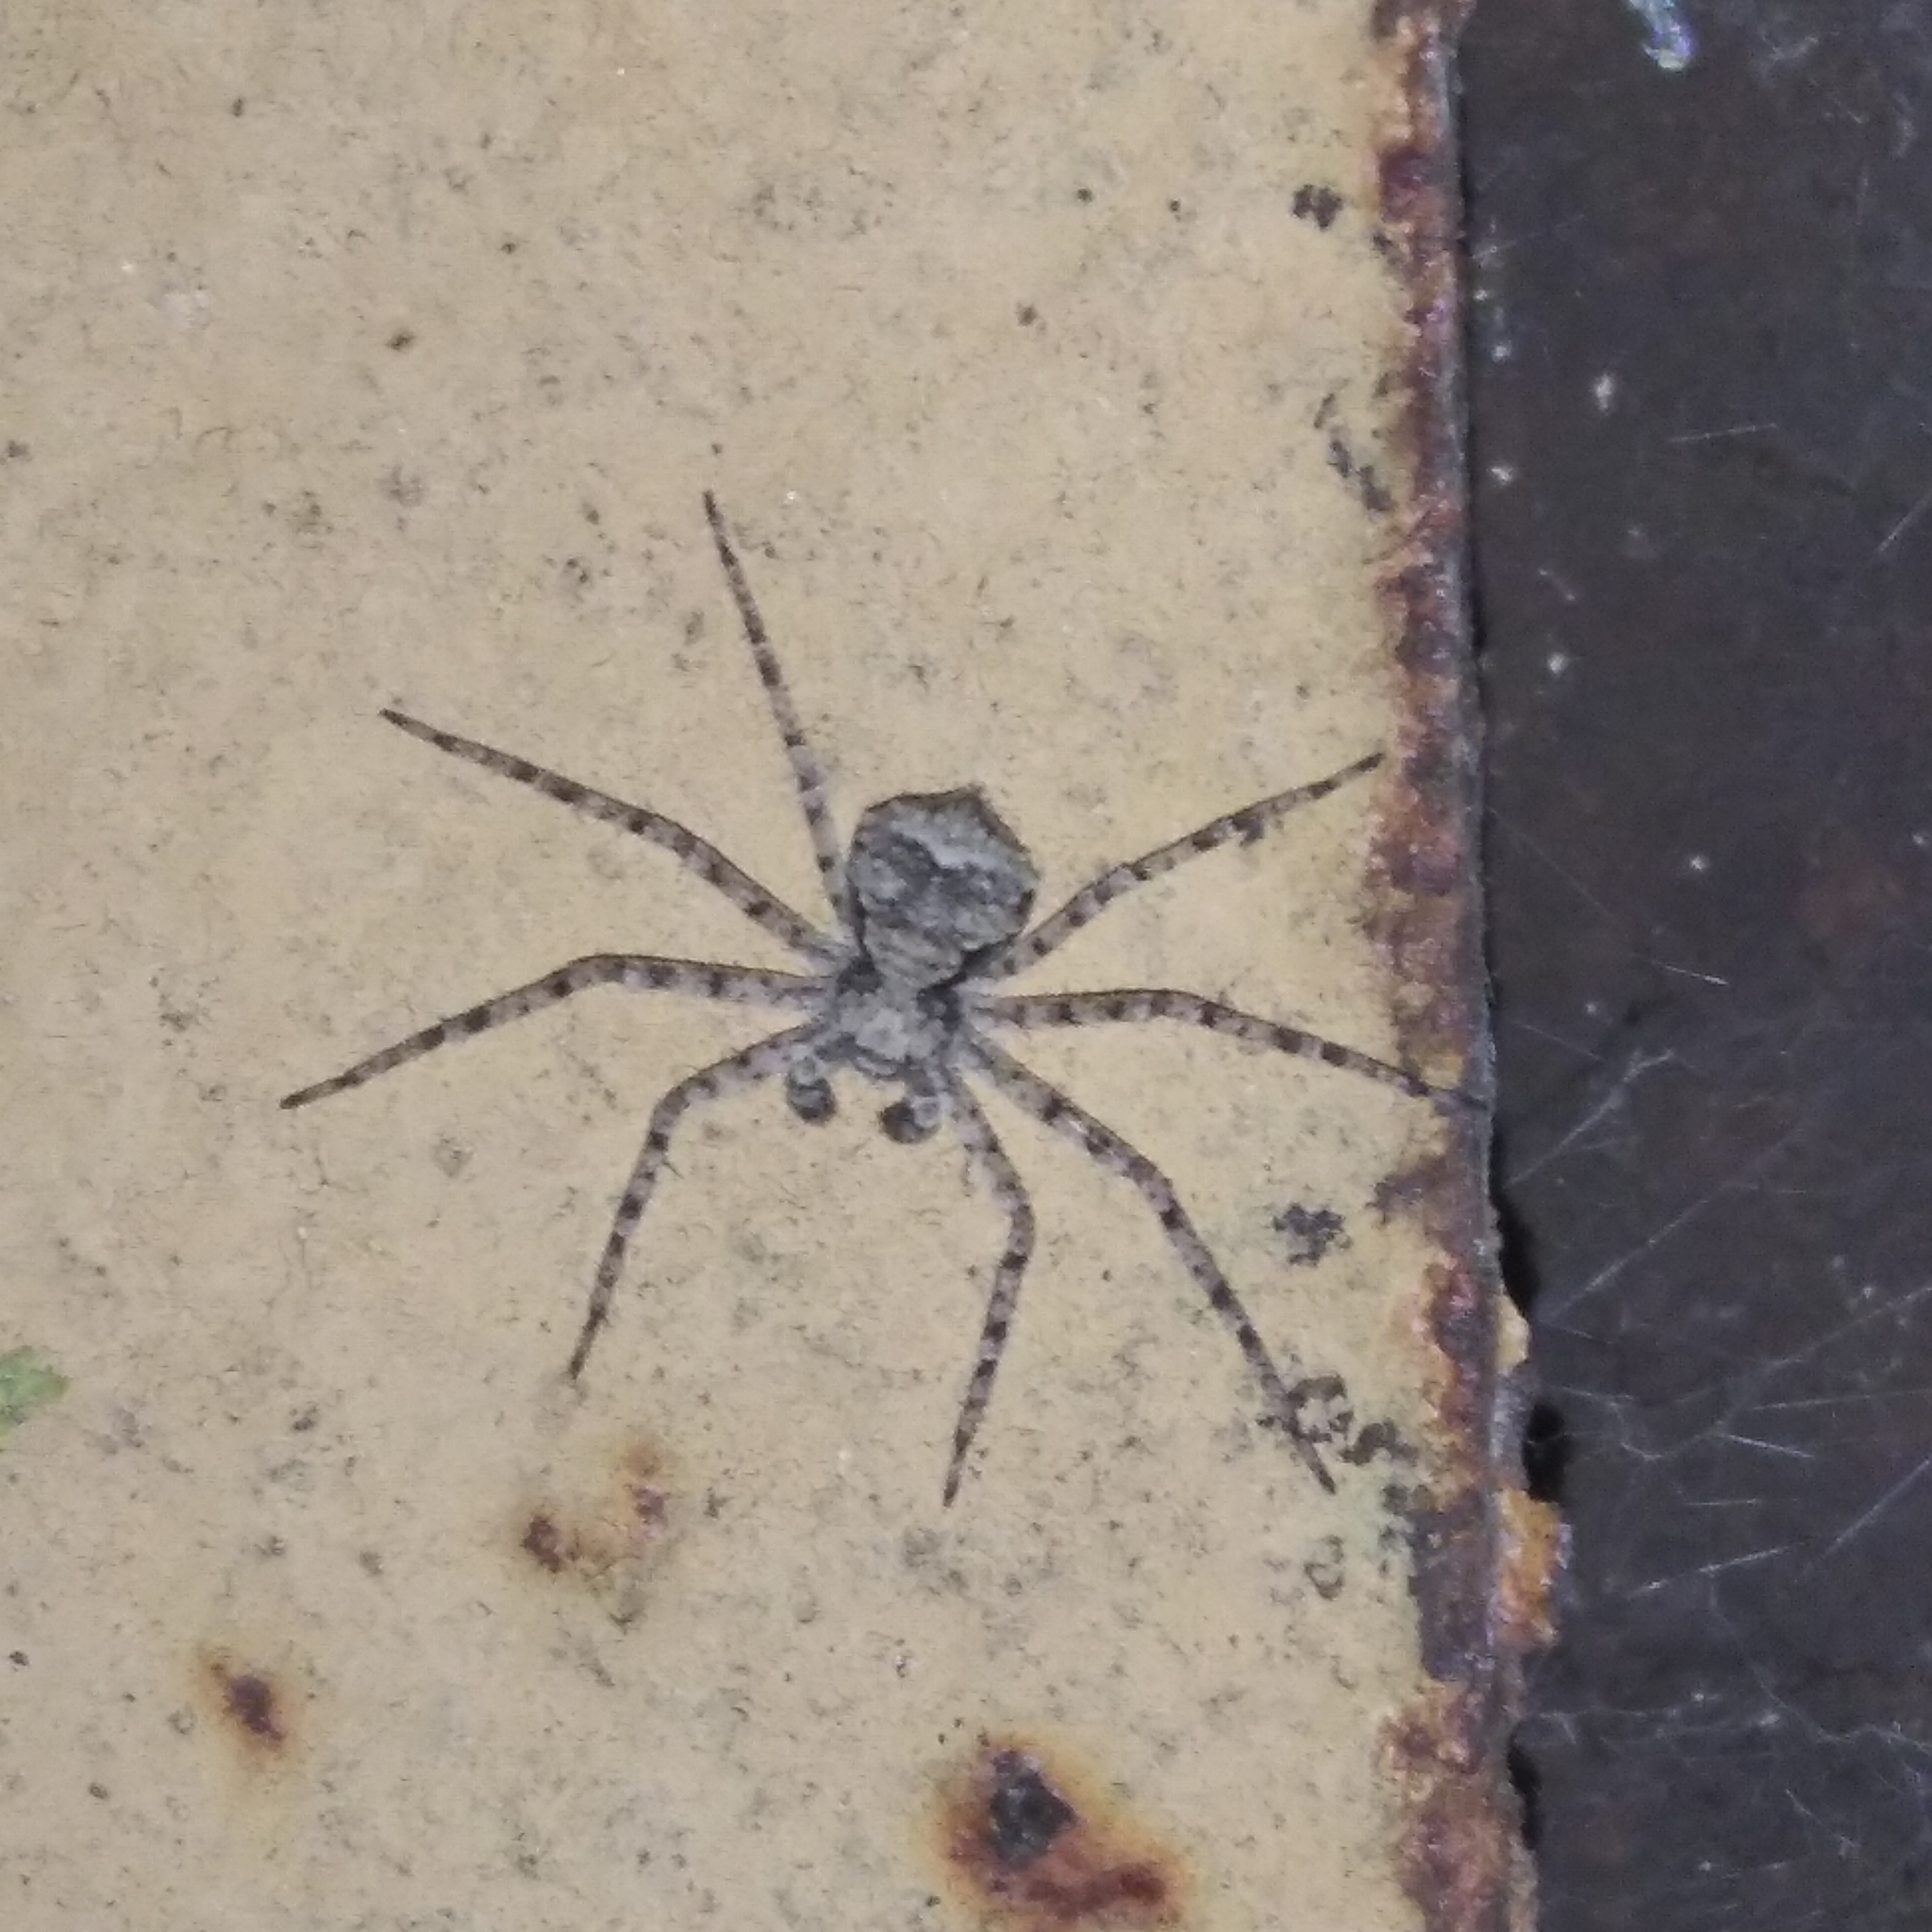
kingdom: Animalia
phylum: Arthropoda
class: Arachnida
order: Araneae
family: Philodromidae
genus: Philodromus
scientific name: Philodromus poecilus
